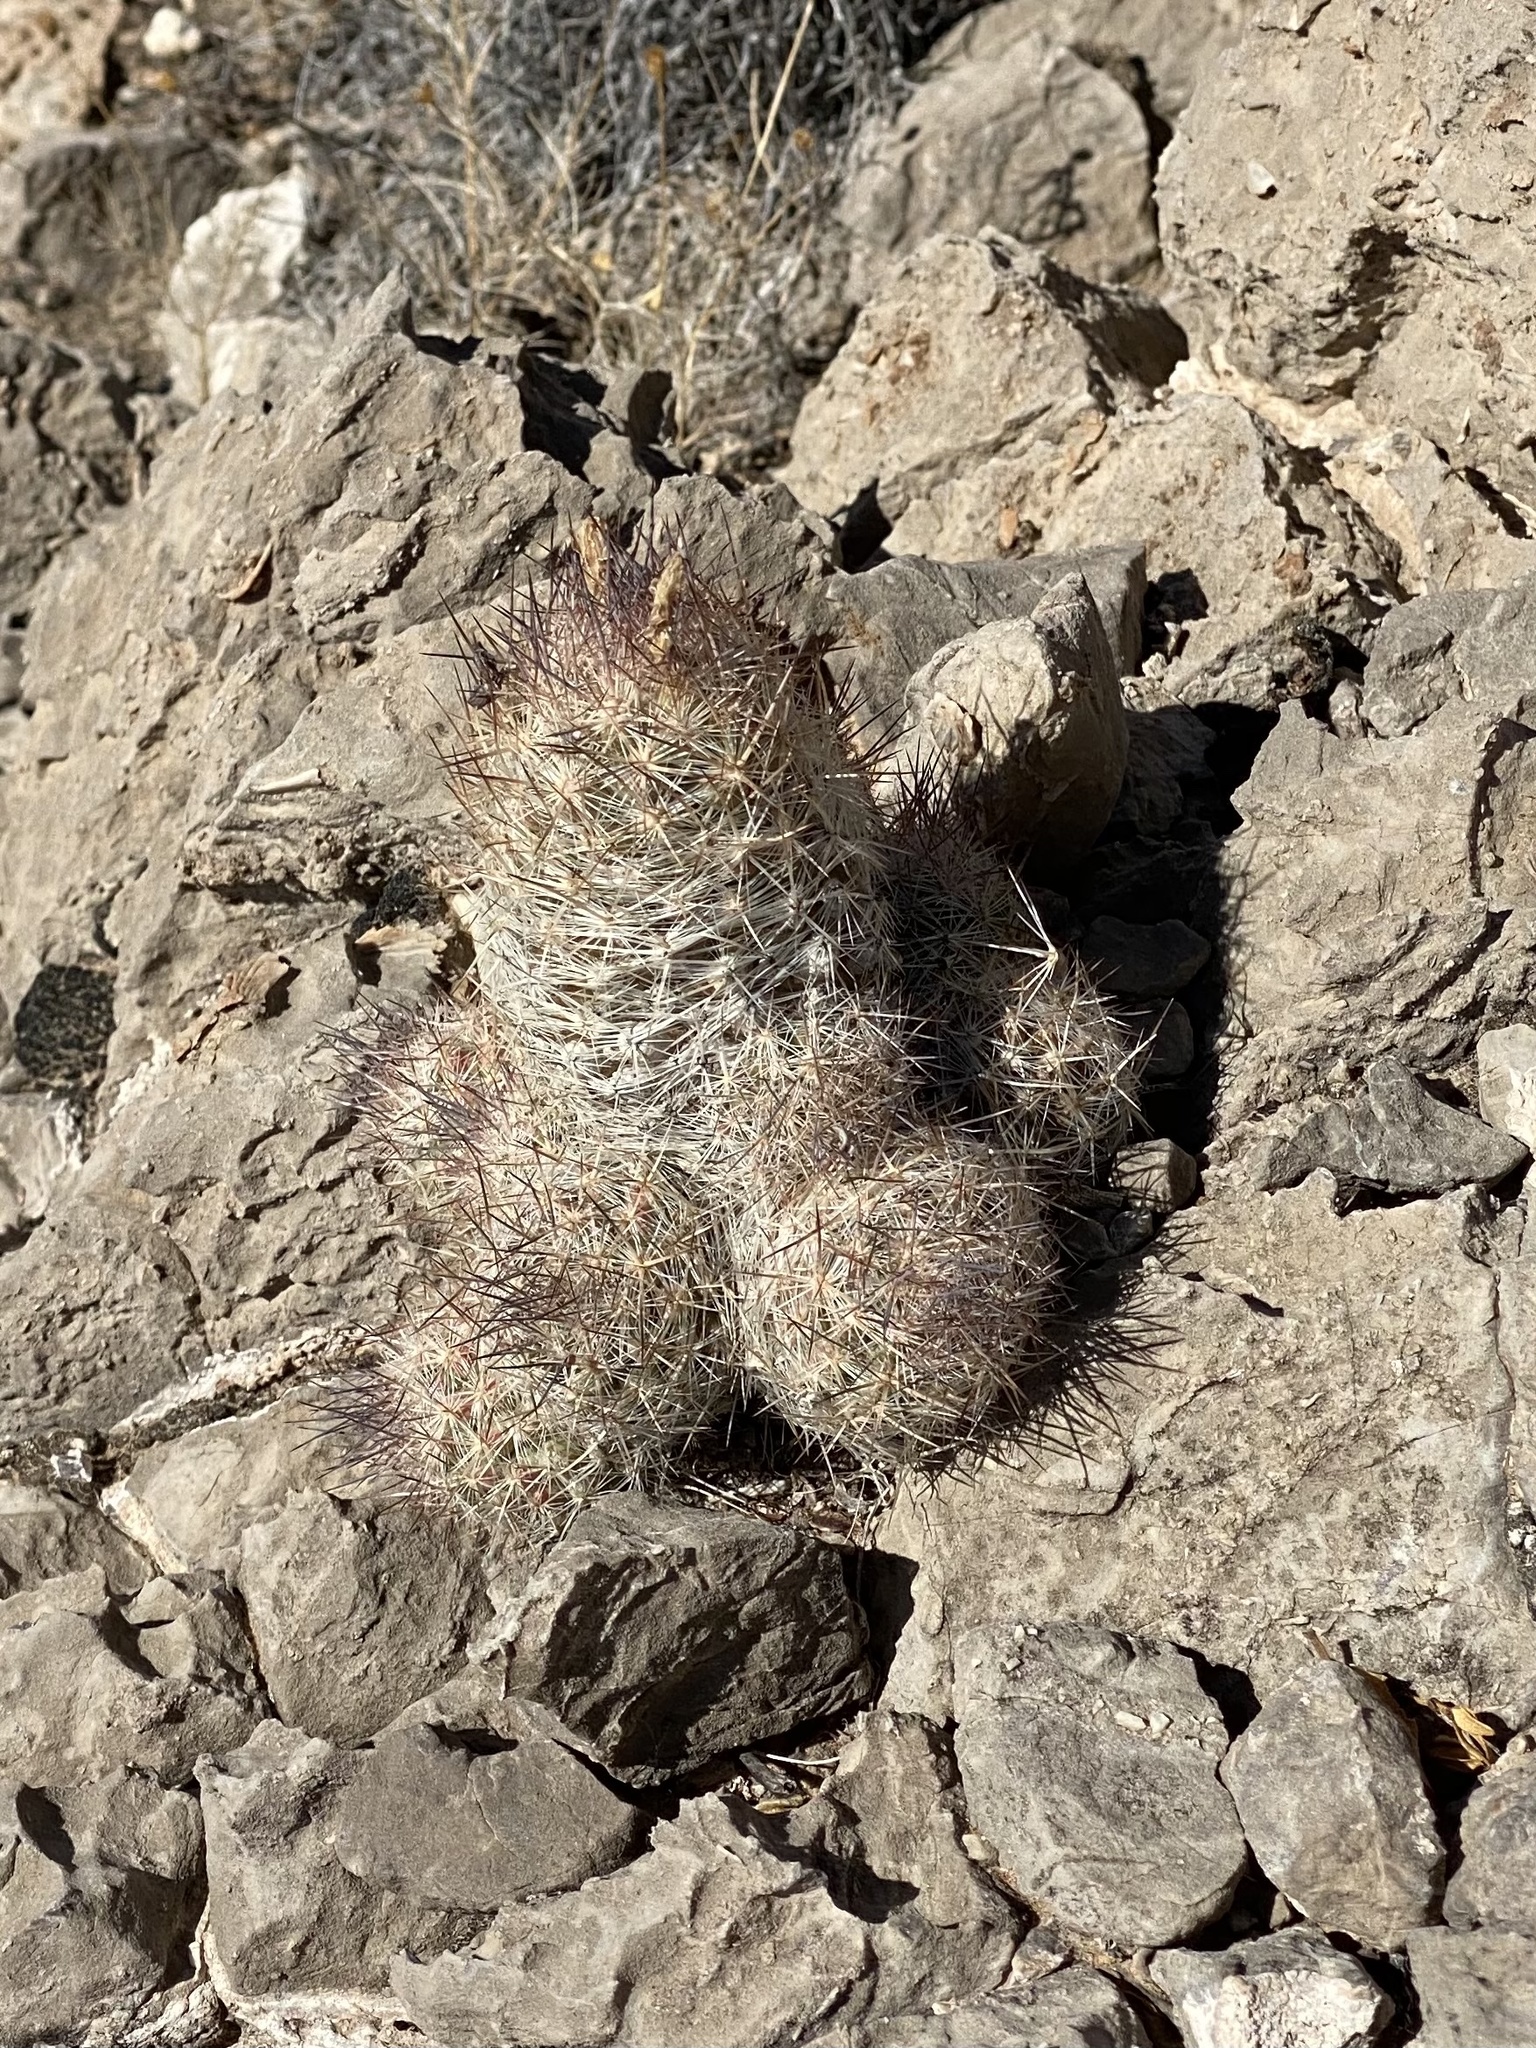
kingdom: Plantae
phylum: Tracheophyta
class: Magnoliopsida
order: Caryophyllales
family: Cactaceae
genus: Pelecyphora
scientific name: Pelecyphora tuberculosa
